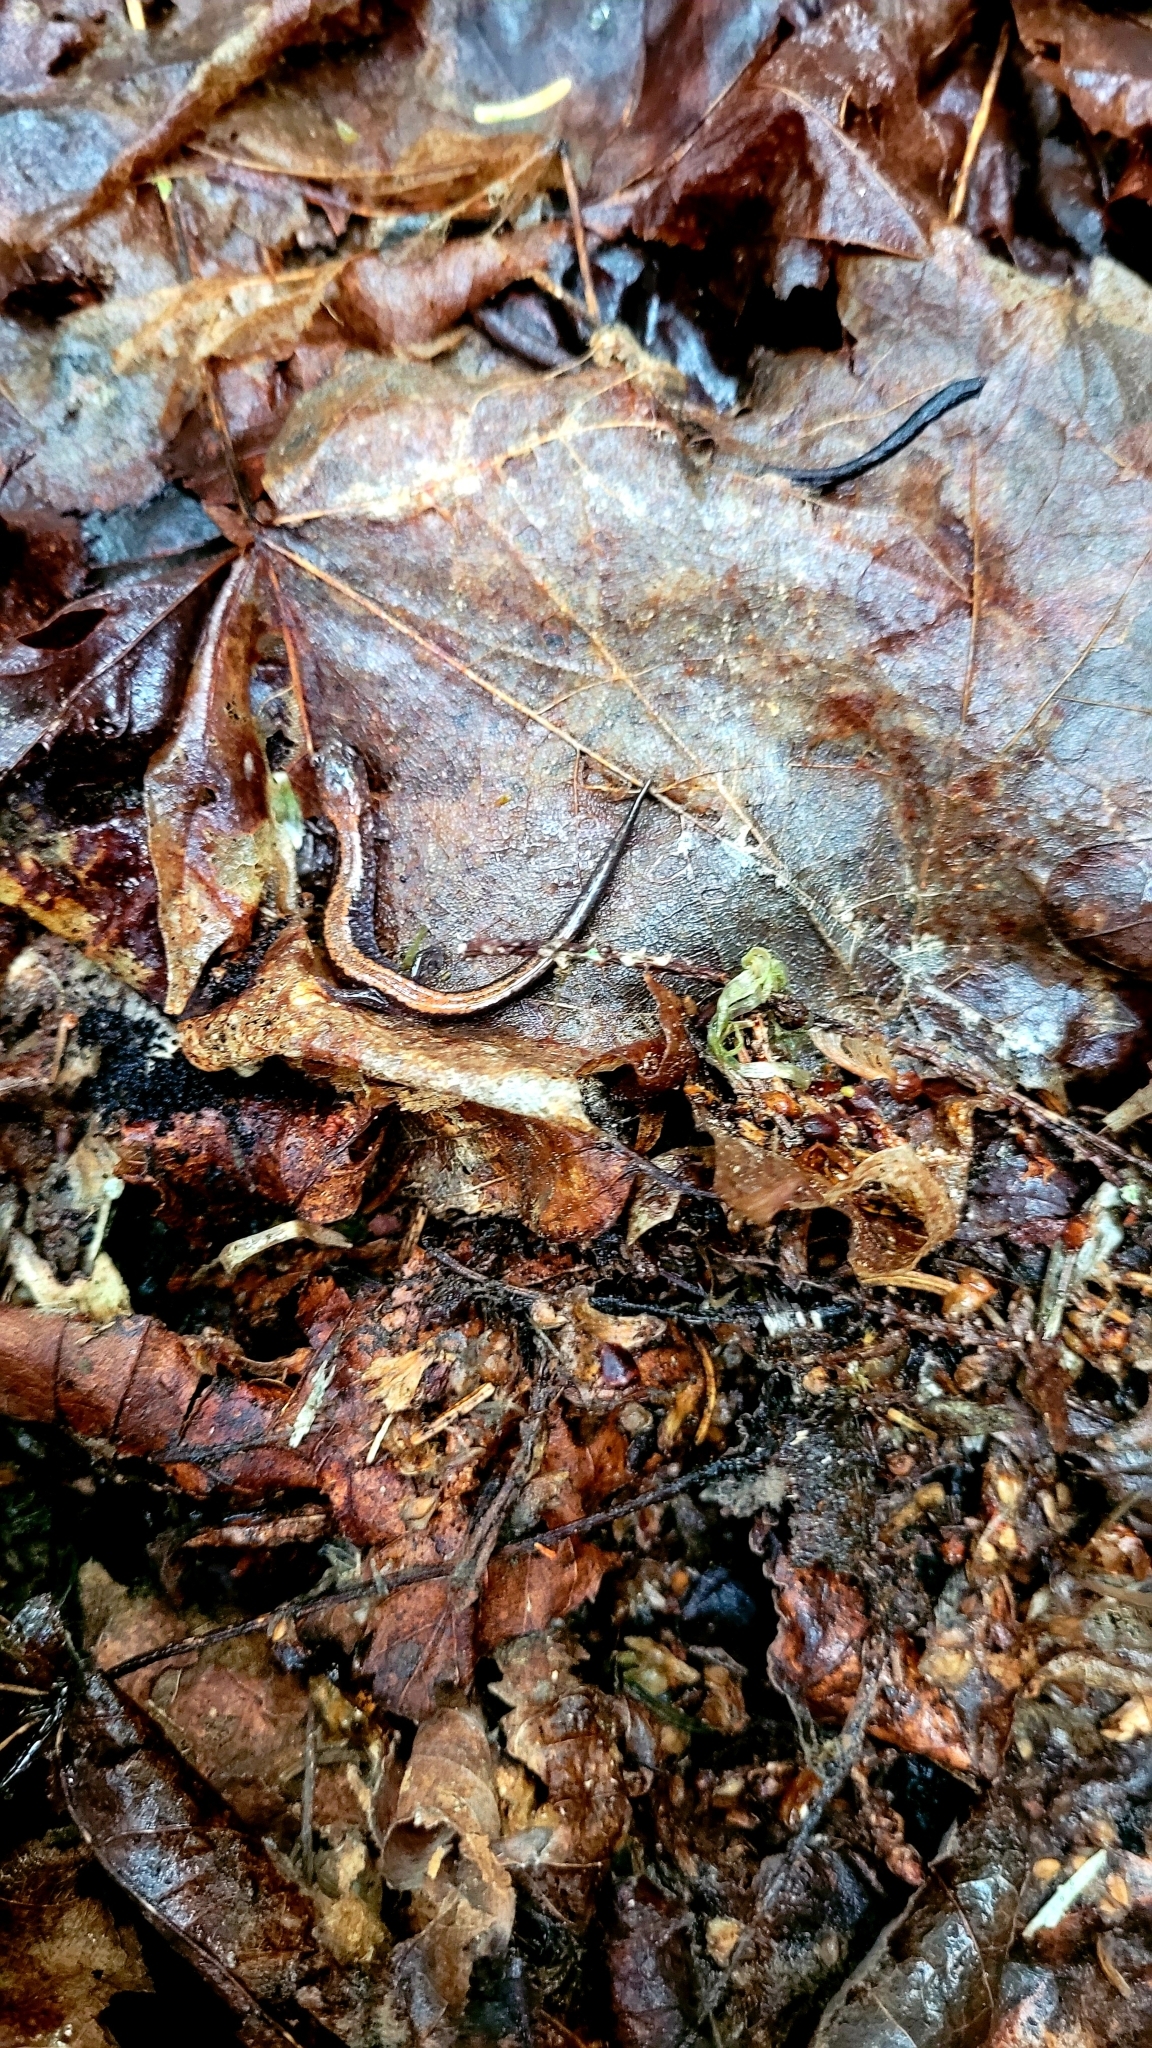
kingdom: Animalia
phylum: Chordata
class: Amphibia
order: Caudata
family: Plethodontidae
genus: Plethodon
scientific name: Plethodon cinereus
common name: Redback salamander
